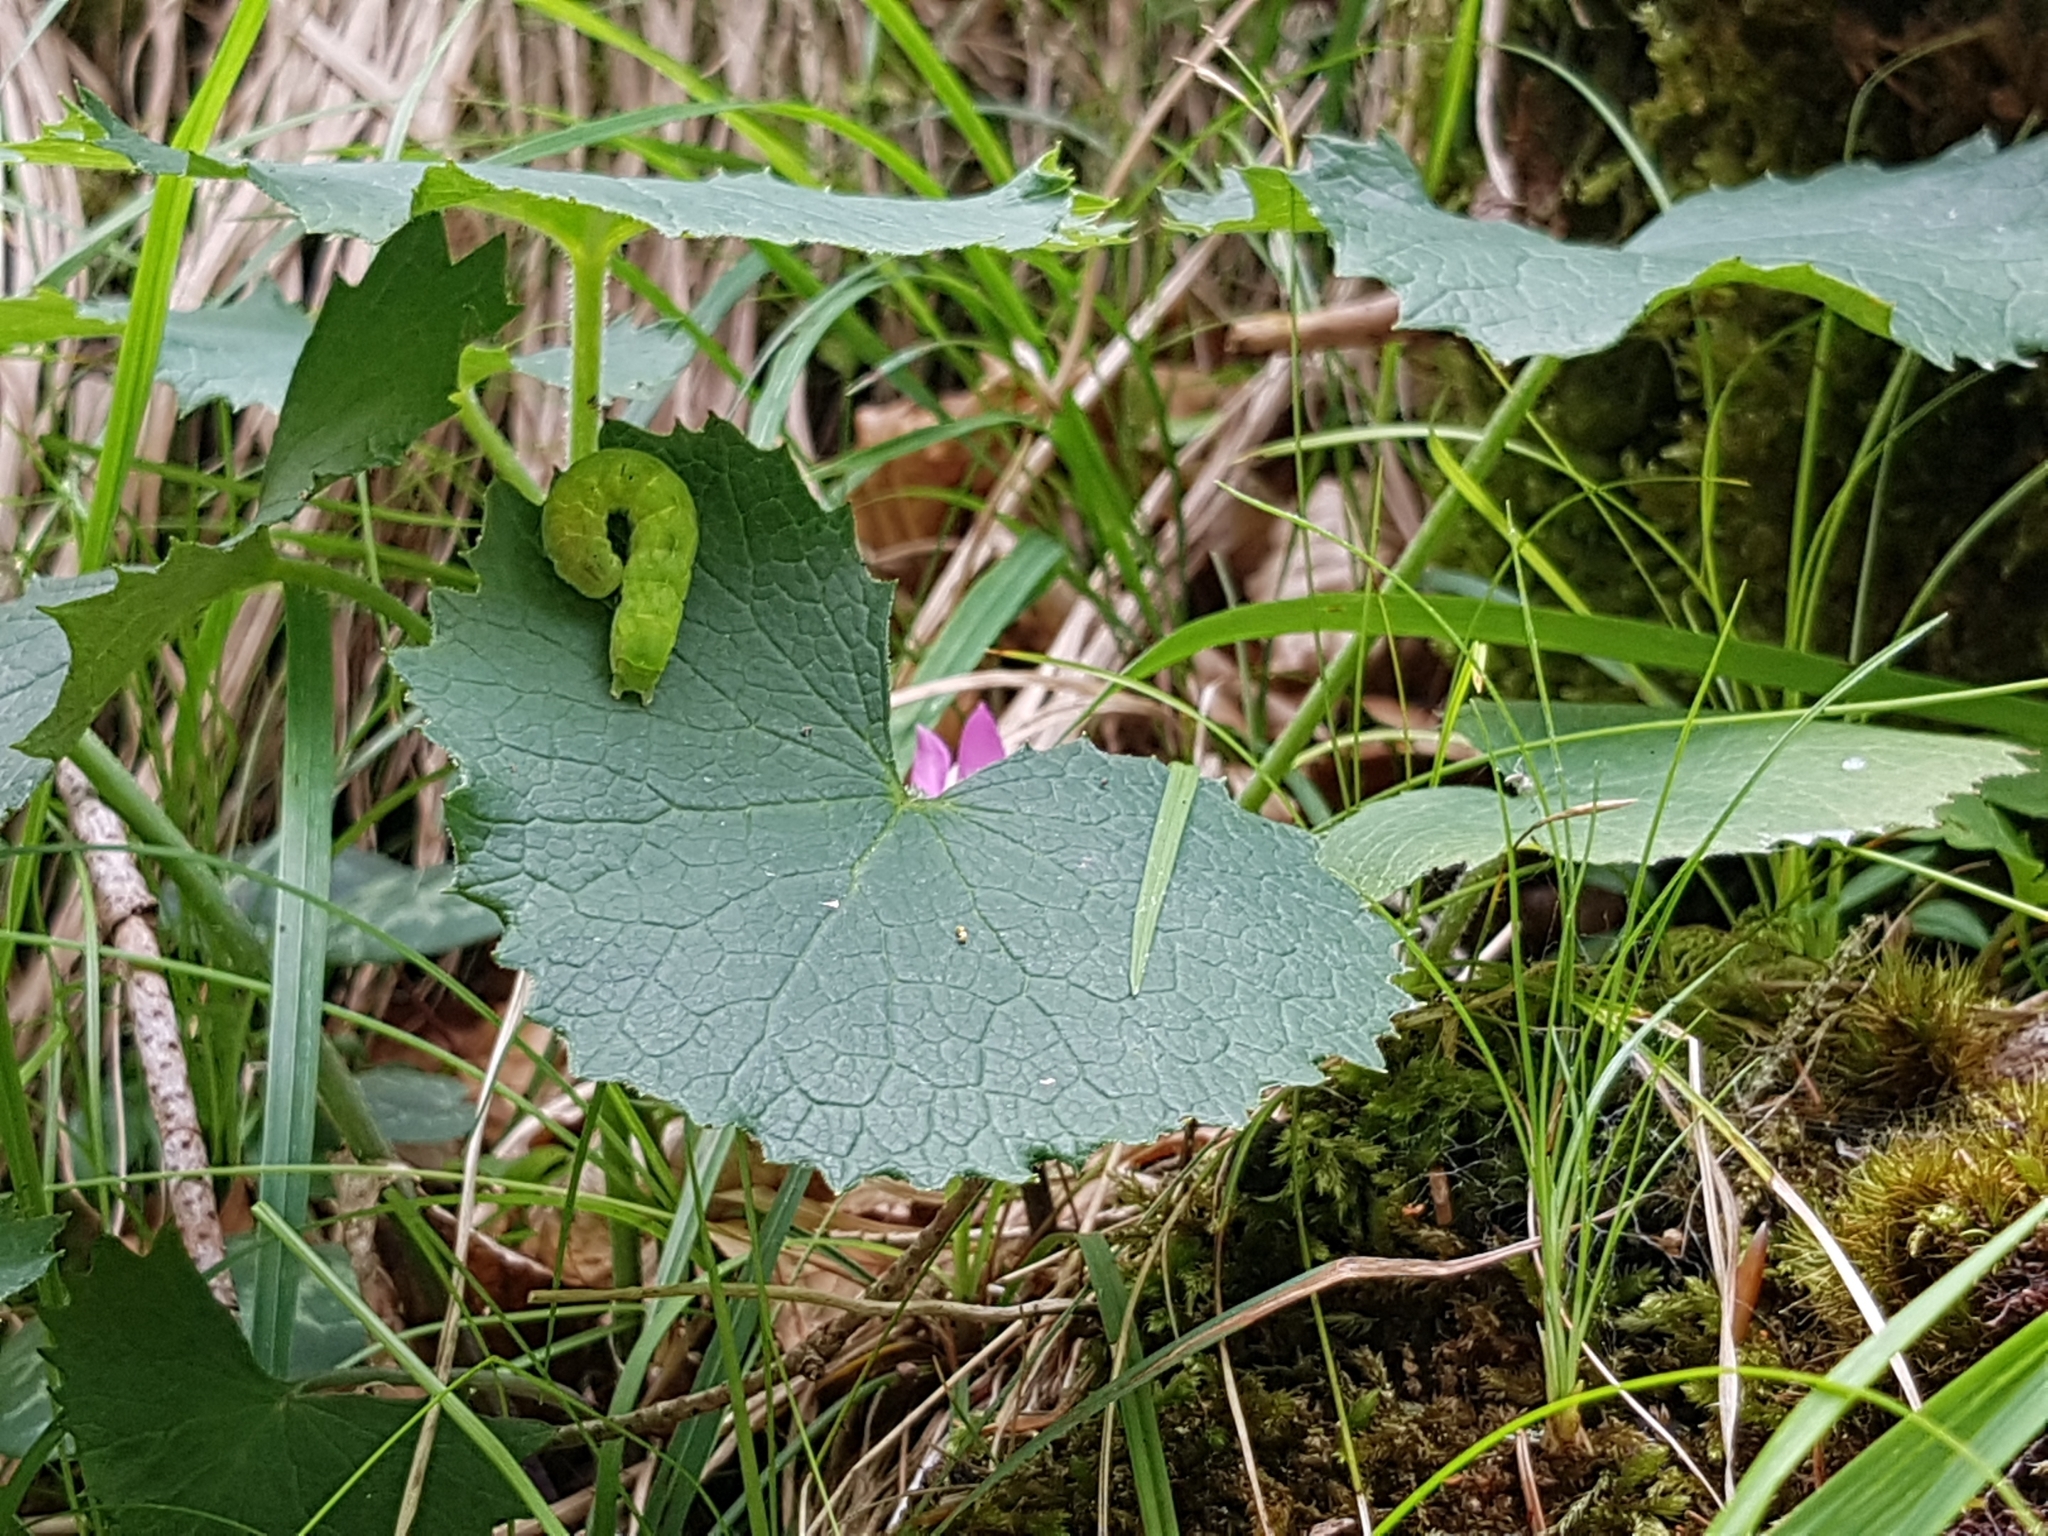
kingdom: Animalia
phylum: Arthropoda
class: Insecta
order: Lepidoptera
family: Noctuidae
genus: Phlogophora
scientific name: Phlogophora meticulosa
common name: Angle shades
